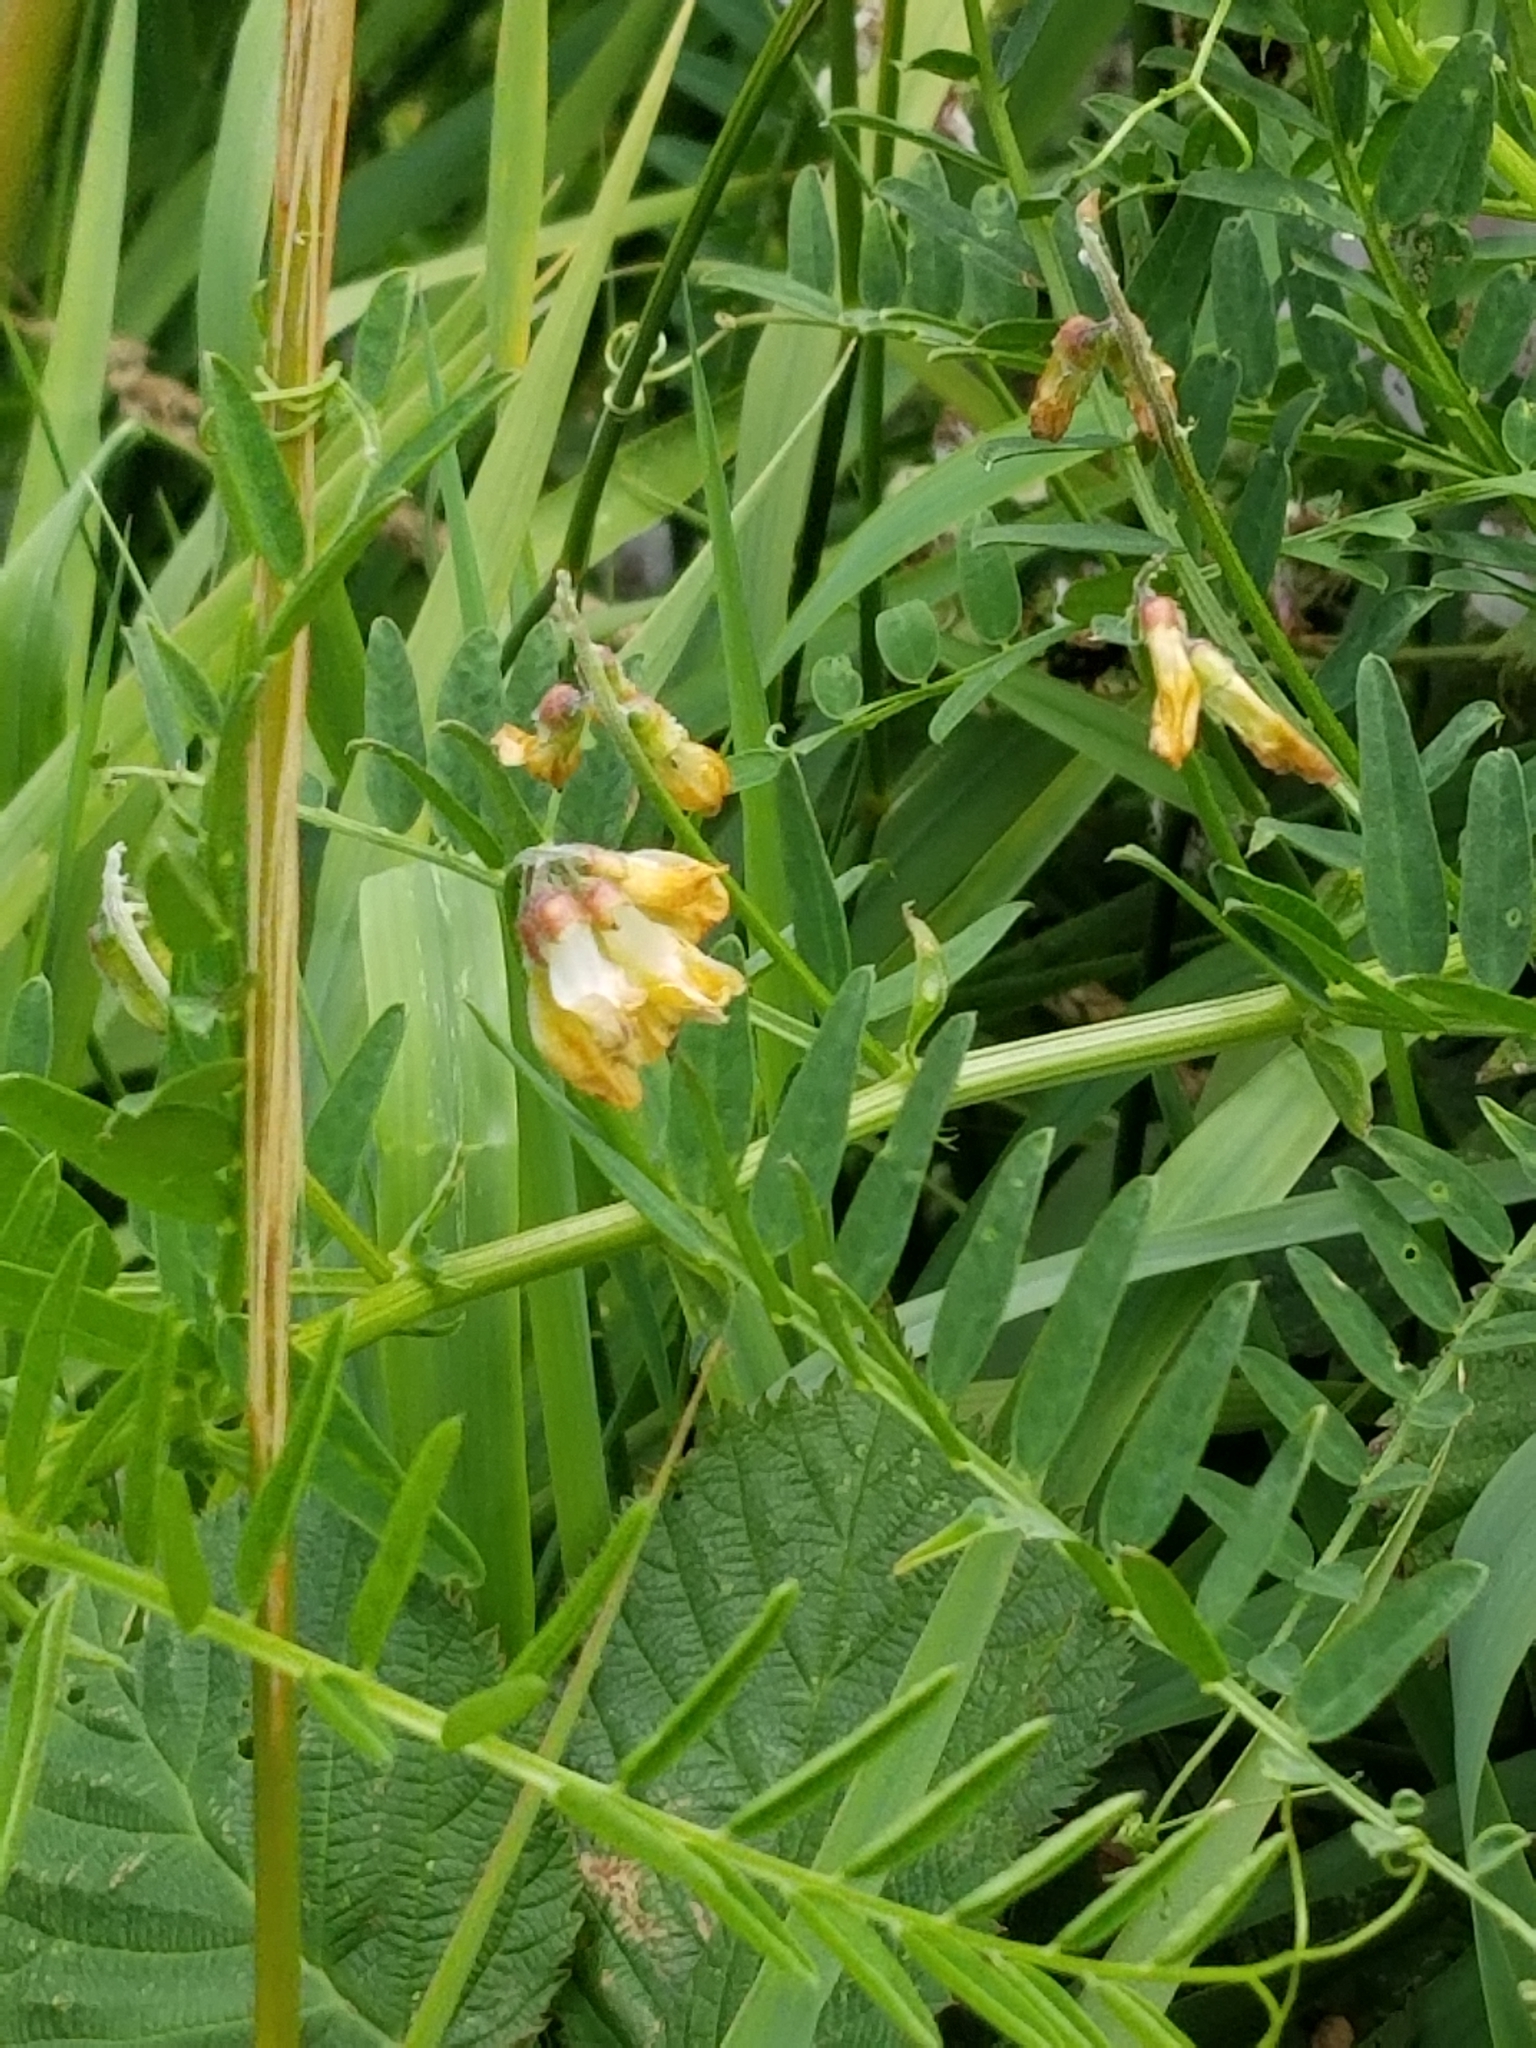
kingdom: Plantae
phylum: Tracheophyta
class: Magnoliopsida
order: Fabales
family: Fabaceae
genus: Vicia
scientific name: Vicia
